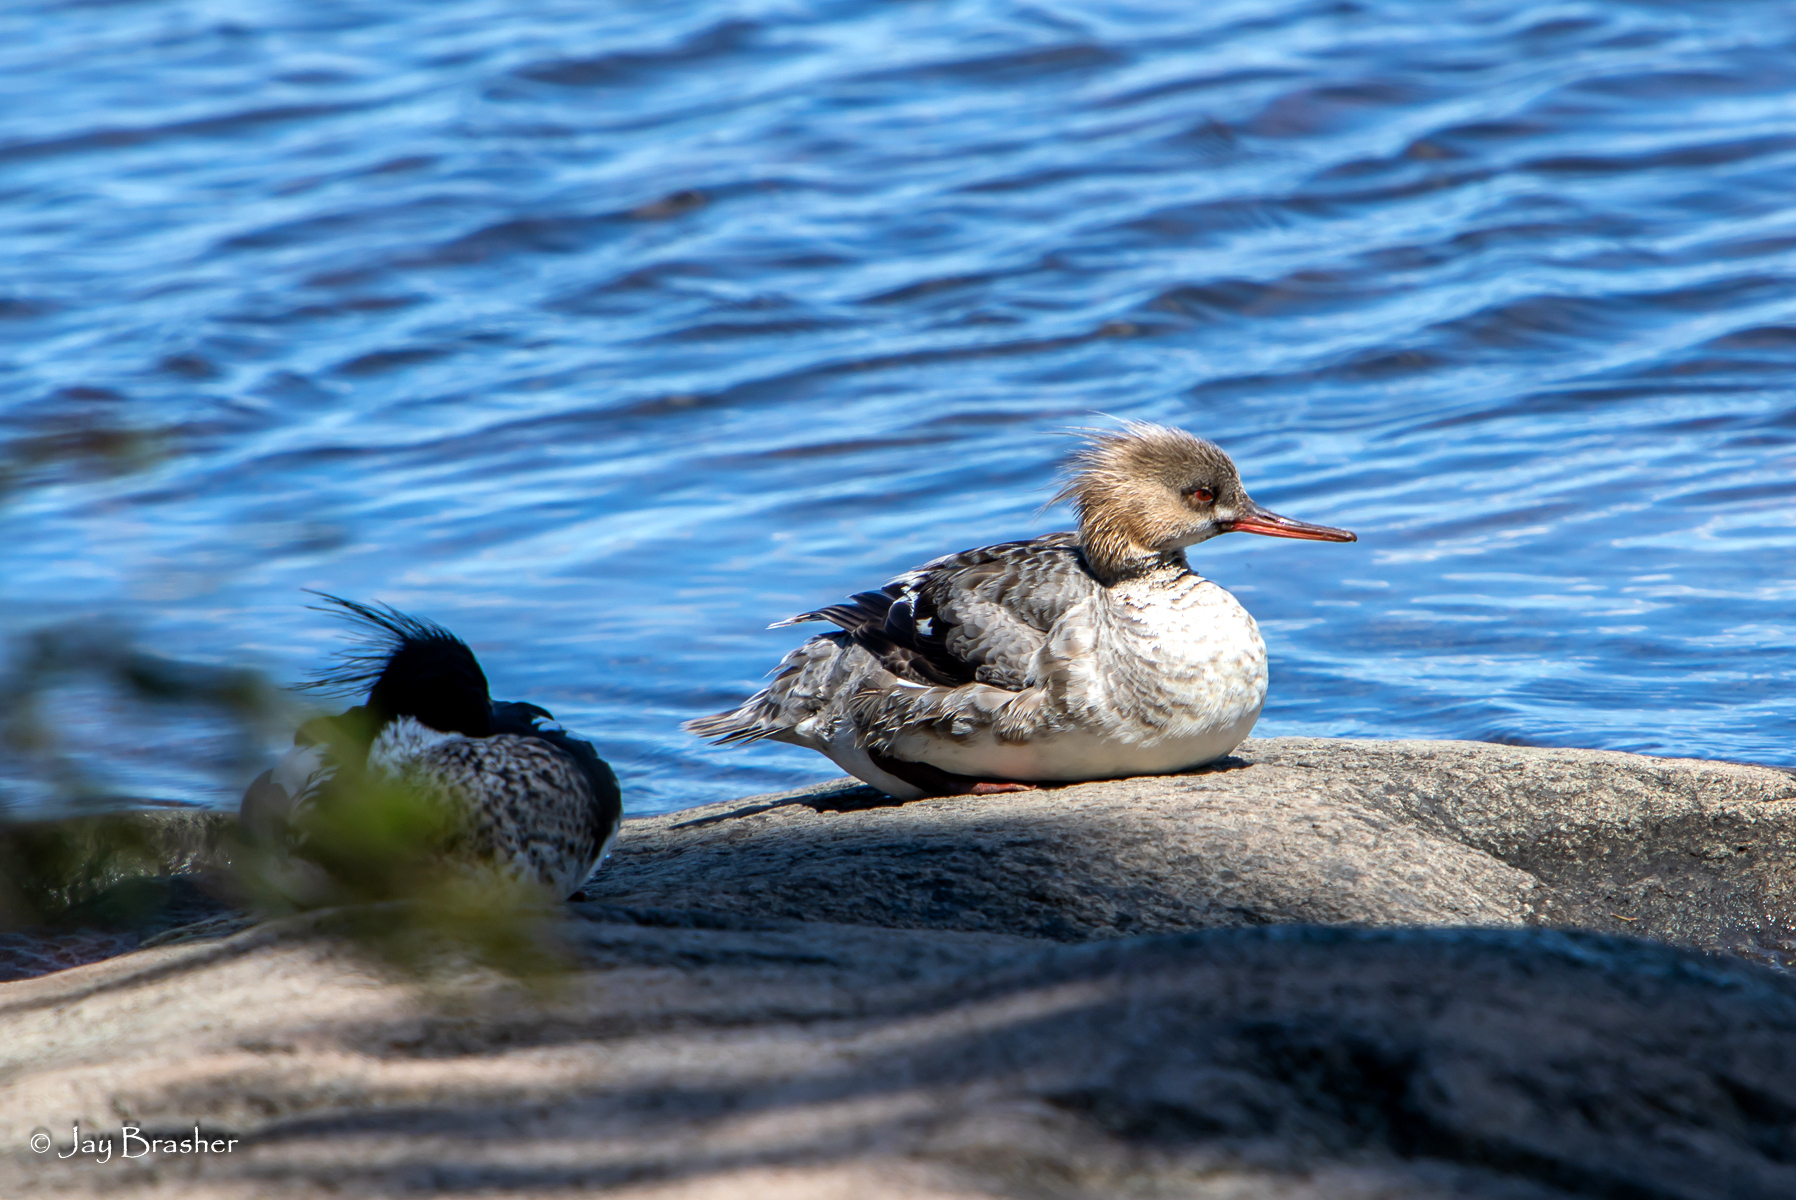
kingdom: Animalia
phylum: Chordata
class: Aves
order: Anseriformes
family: Anatidae
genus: Mergus
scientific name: Mergus serrator
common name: Red-breasted merganser
